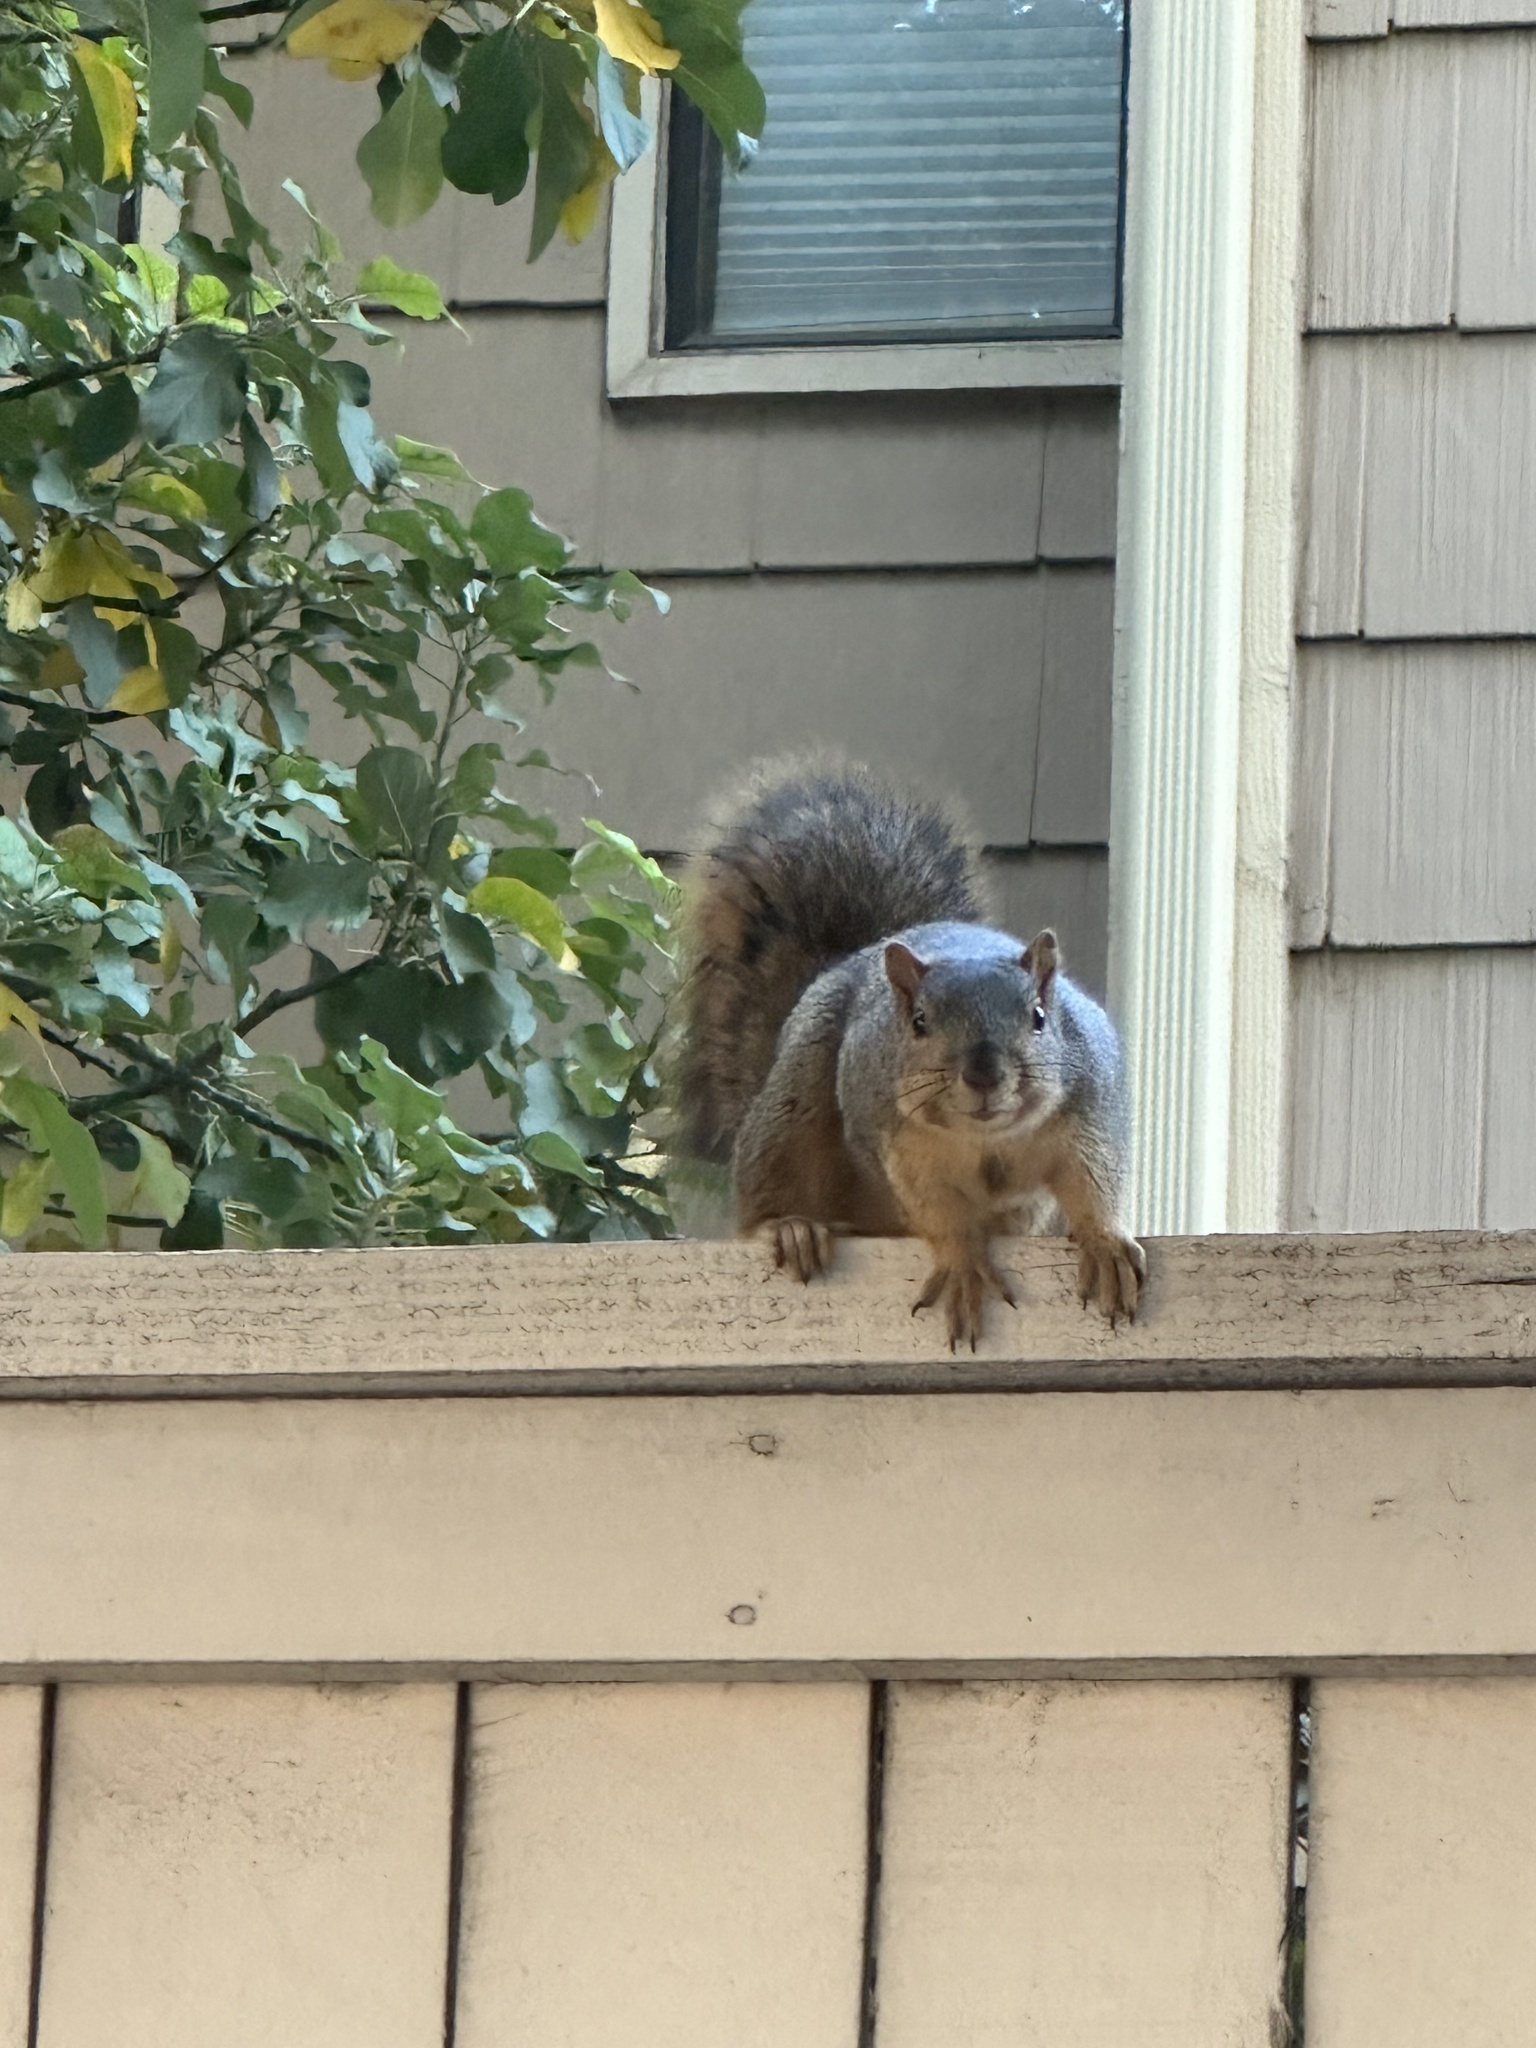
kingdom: Animalia
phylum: Chordata
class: Mammalia
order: Rodentia
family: Sciuridae
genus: Sciurus
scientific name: Sciurus niger
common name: Fox squirrel
